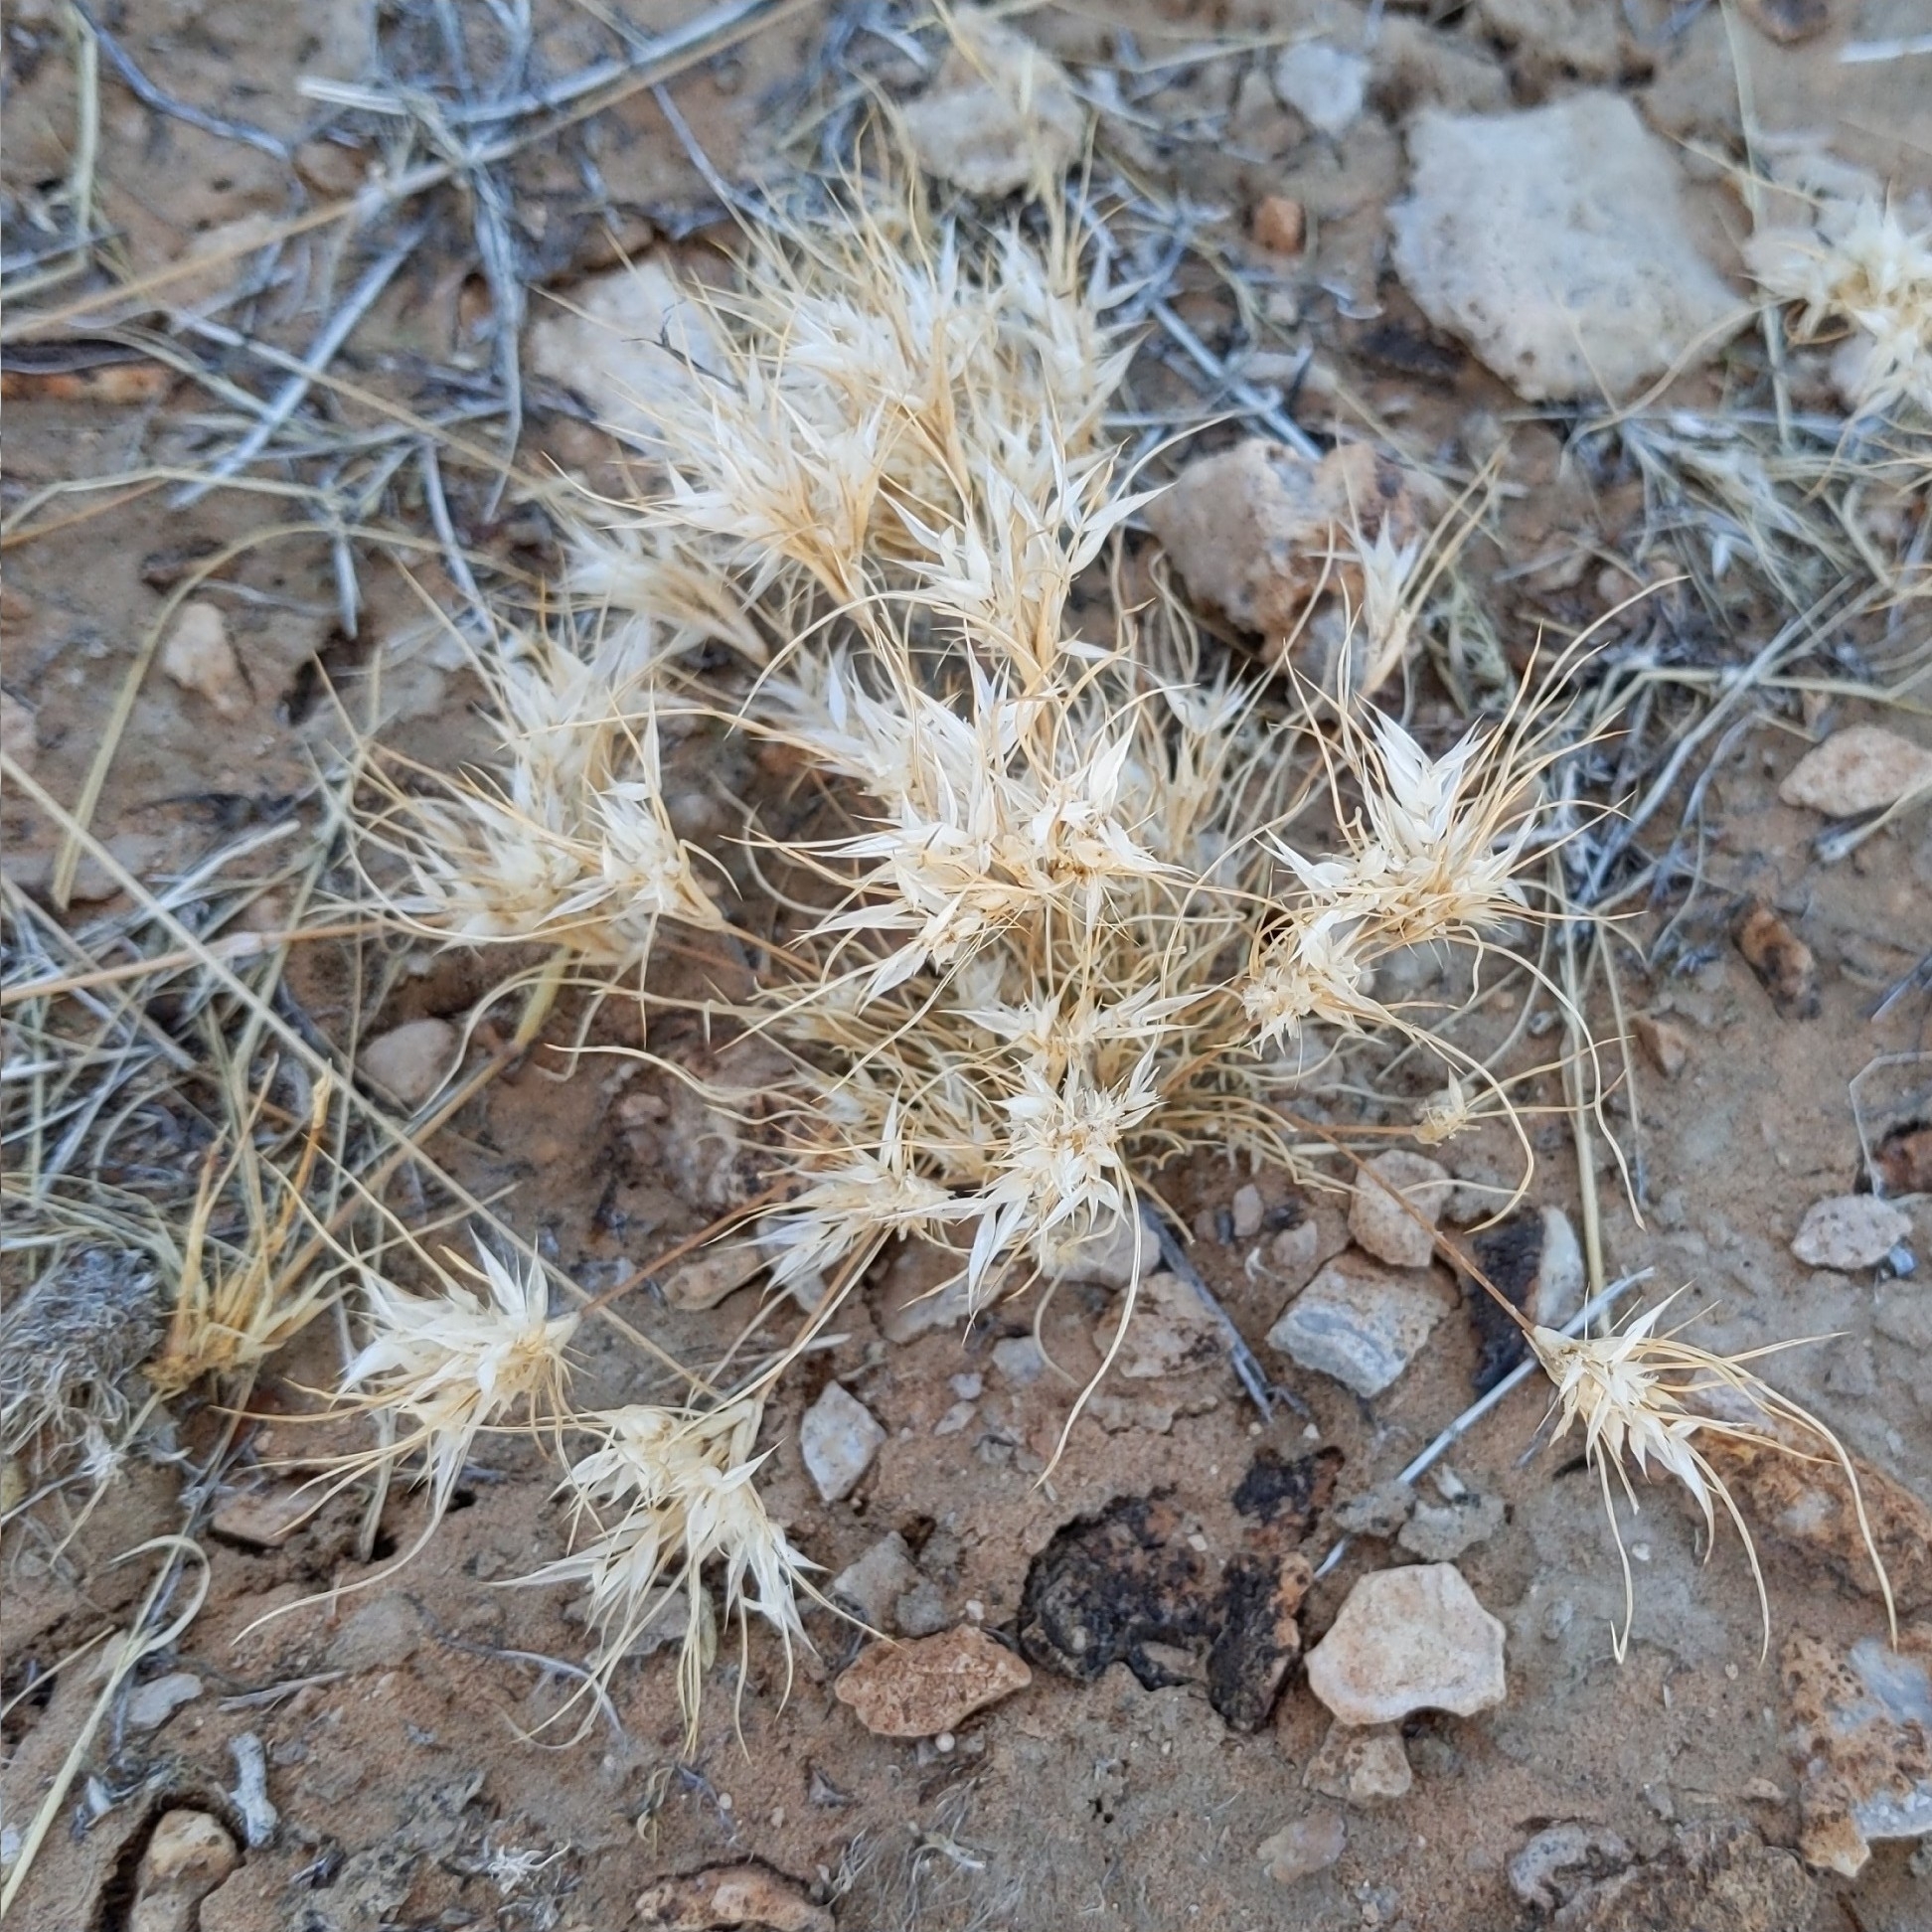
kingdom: Plantae
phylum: Tracheophyta
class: Liliopsida
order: Poales
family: Poaceae
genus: Dasyochloa
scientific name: Dasyochloa pulchella
